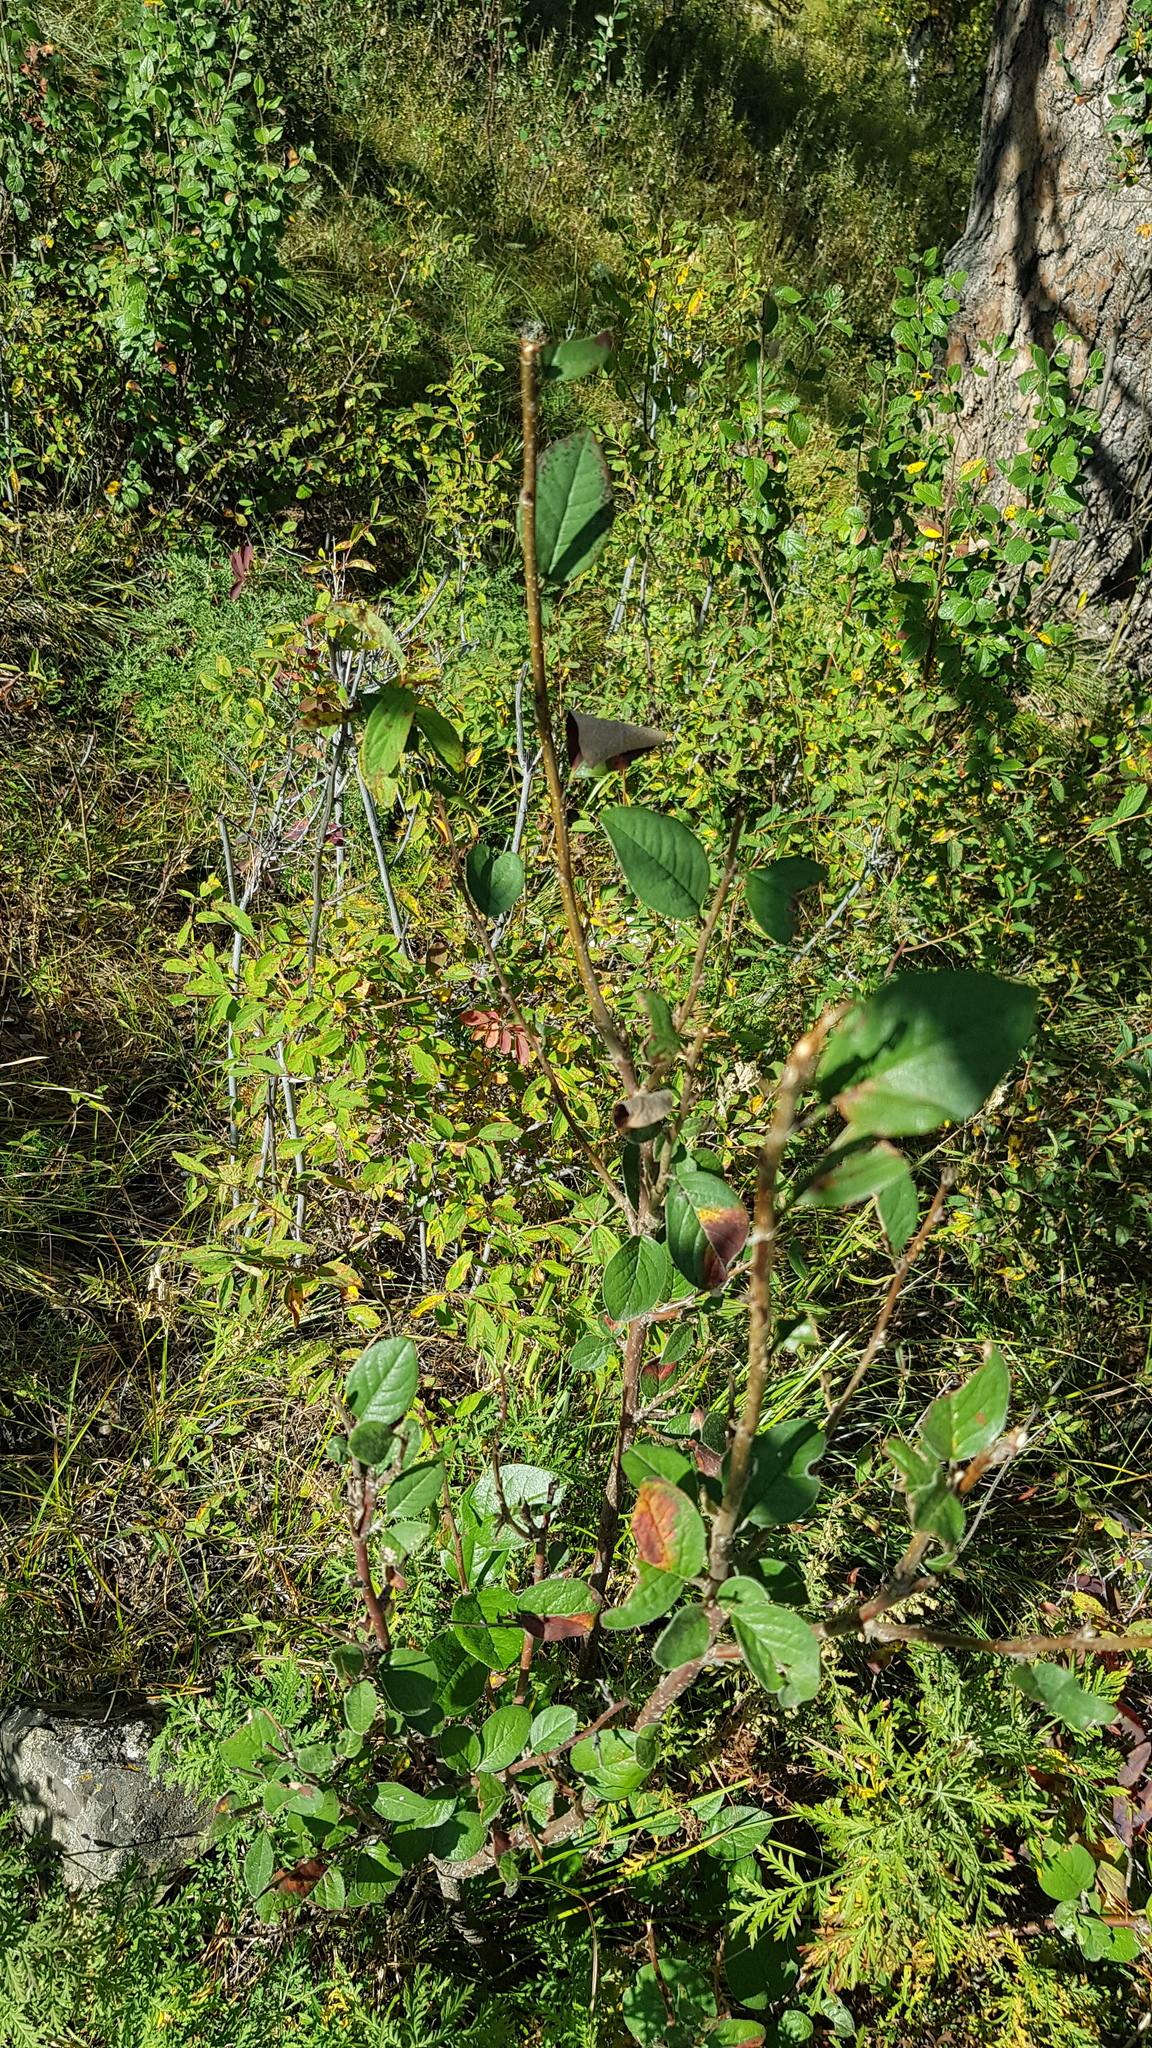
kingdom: Plantae
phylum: Tracheophyta
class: Magnoliopsida
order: Rosales
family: Rosaceae
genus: Cotoneaster
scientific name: Cotoneaster melanocarpus
